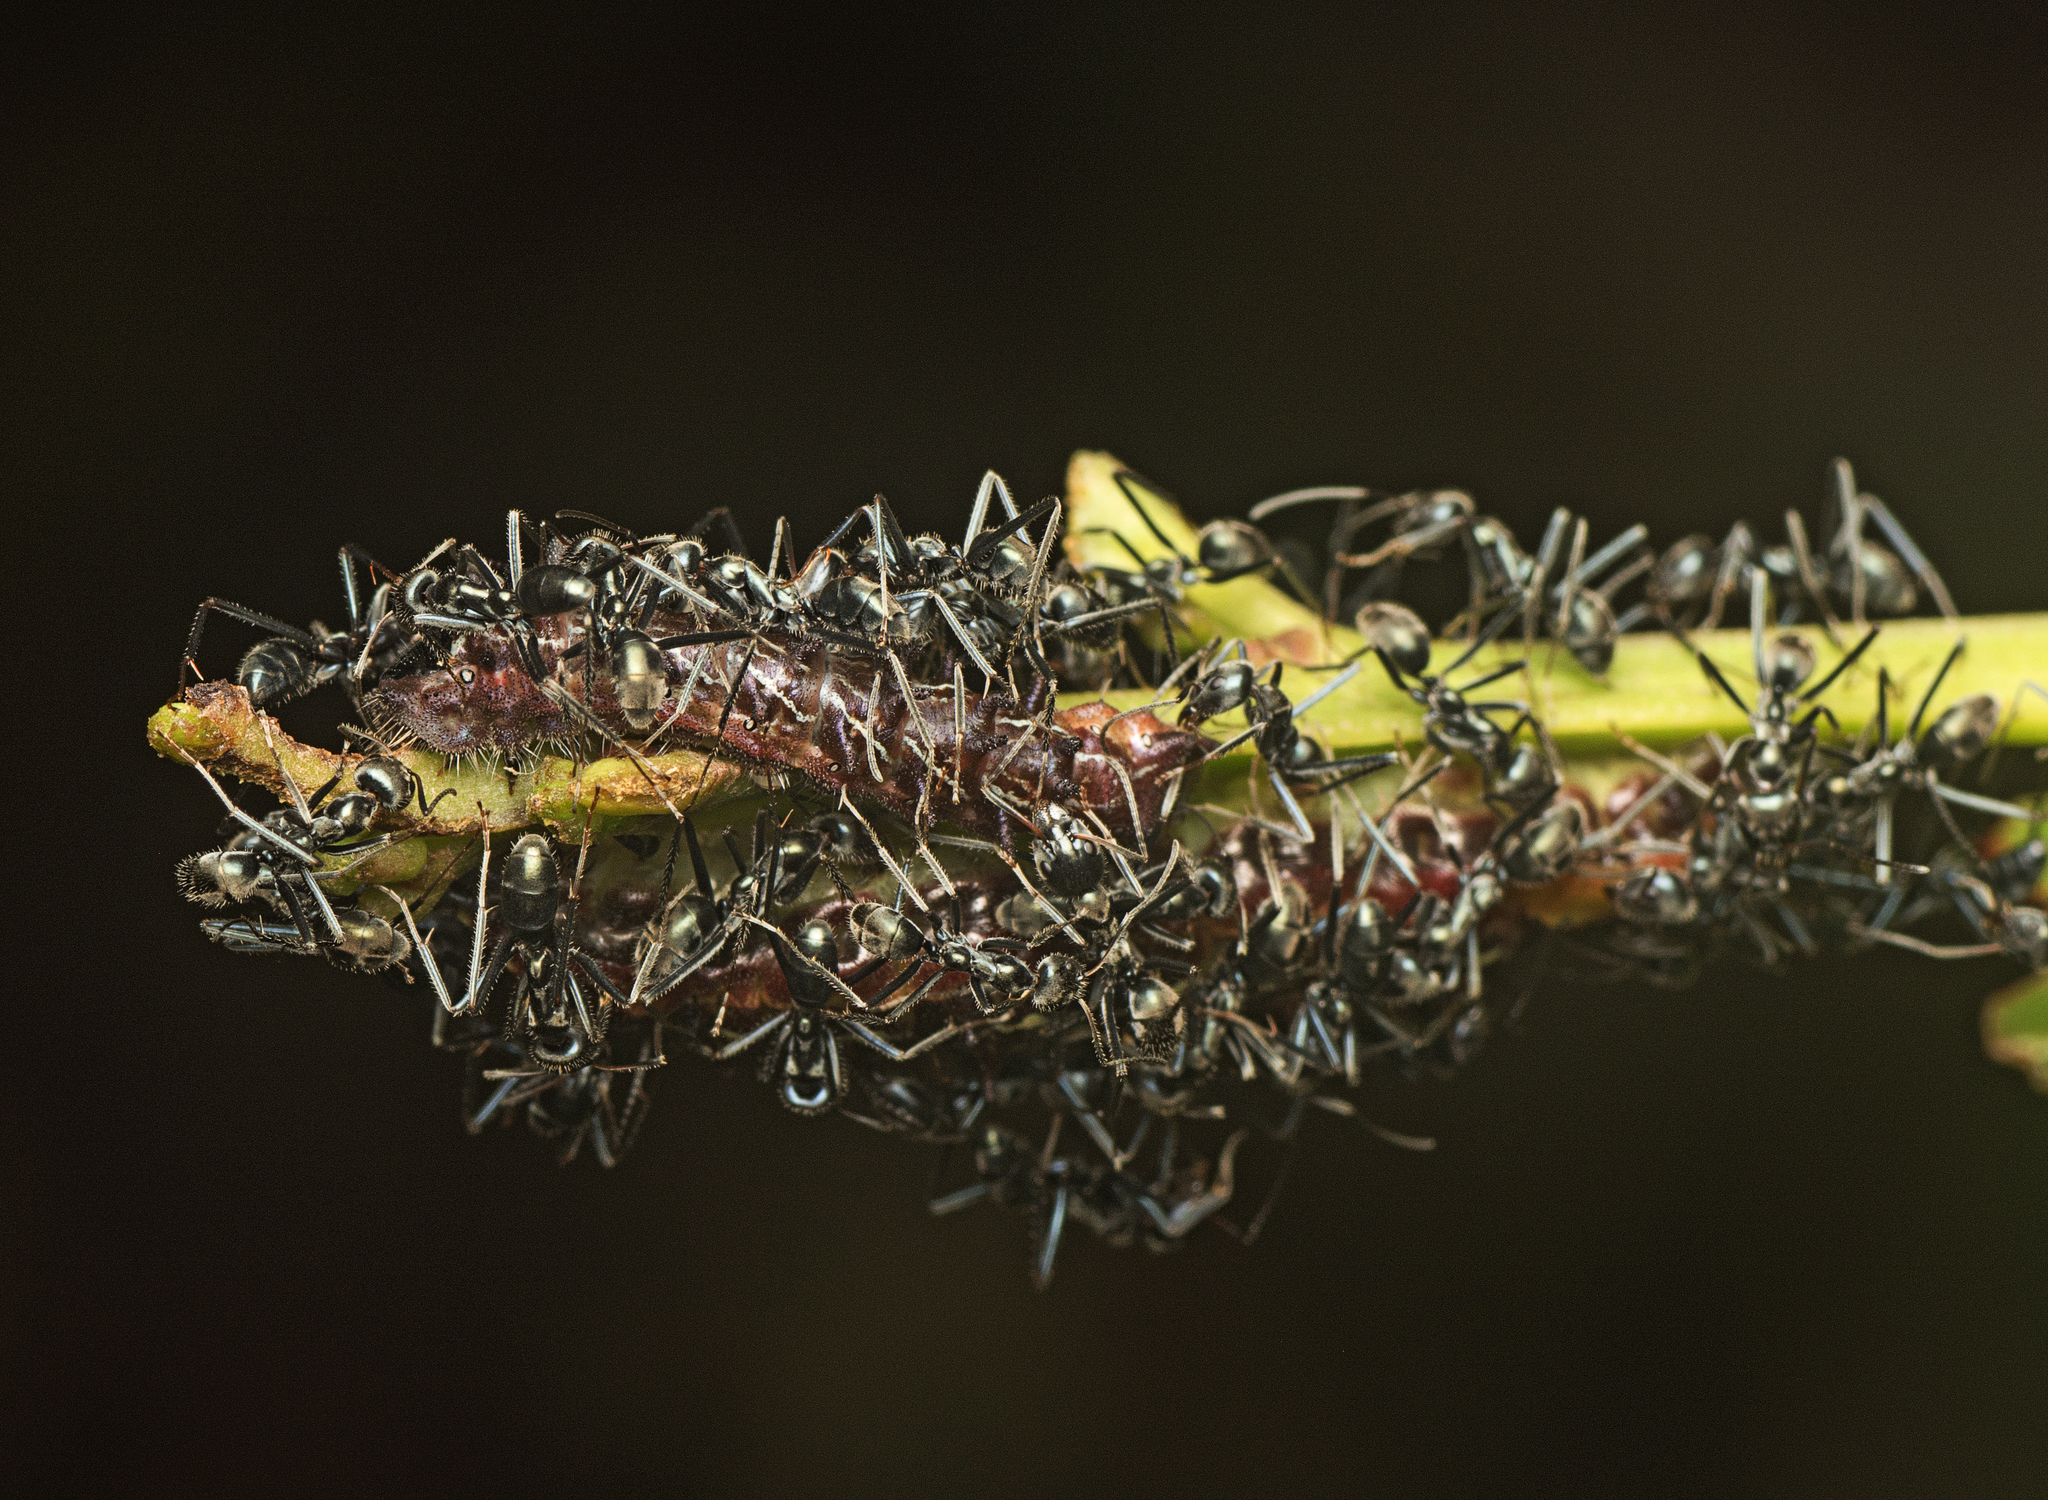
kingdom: Animalia
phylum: Arthropoda
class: Insecta
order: Lepidoptera
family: Lycaenidae
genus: Jalmenus
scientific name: Jalmenus evagoras
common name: Common imperial blue
